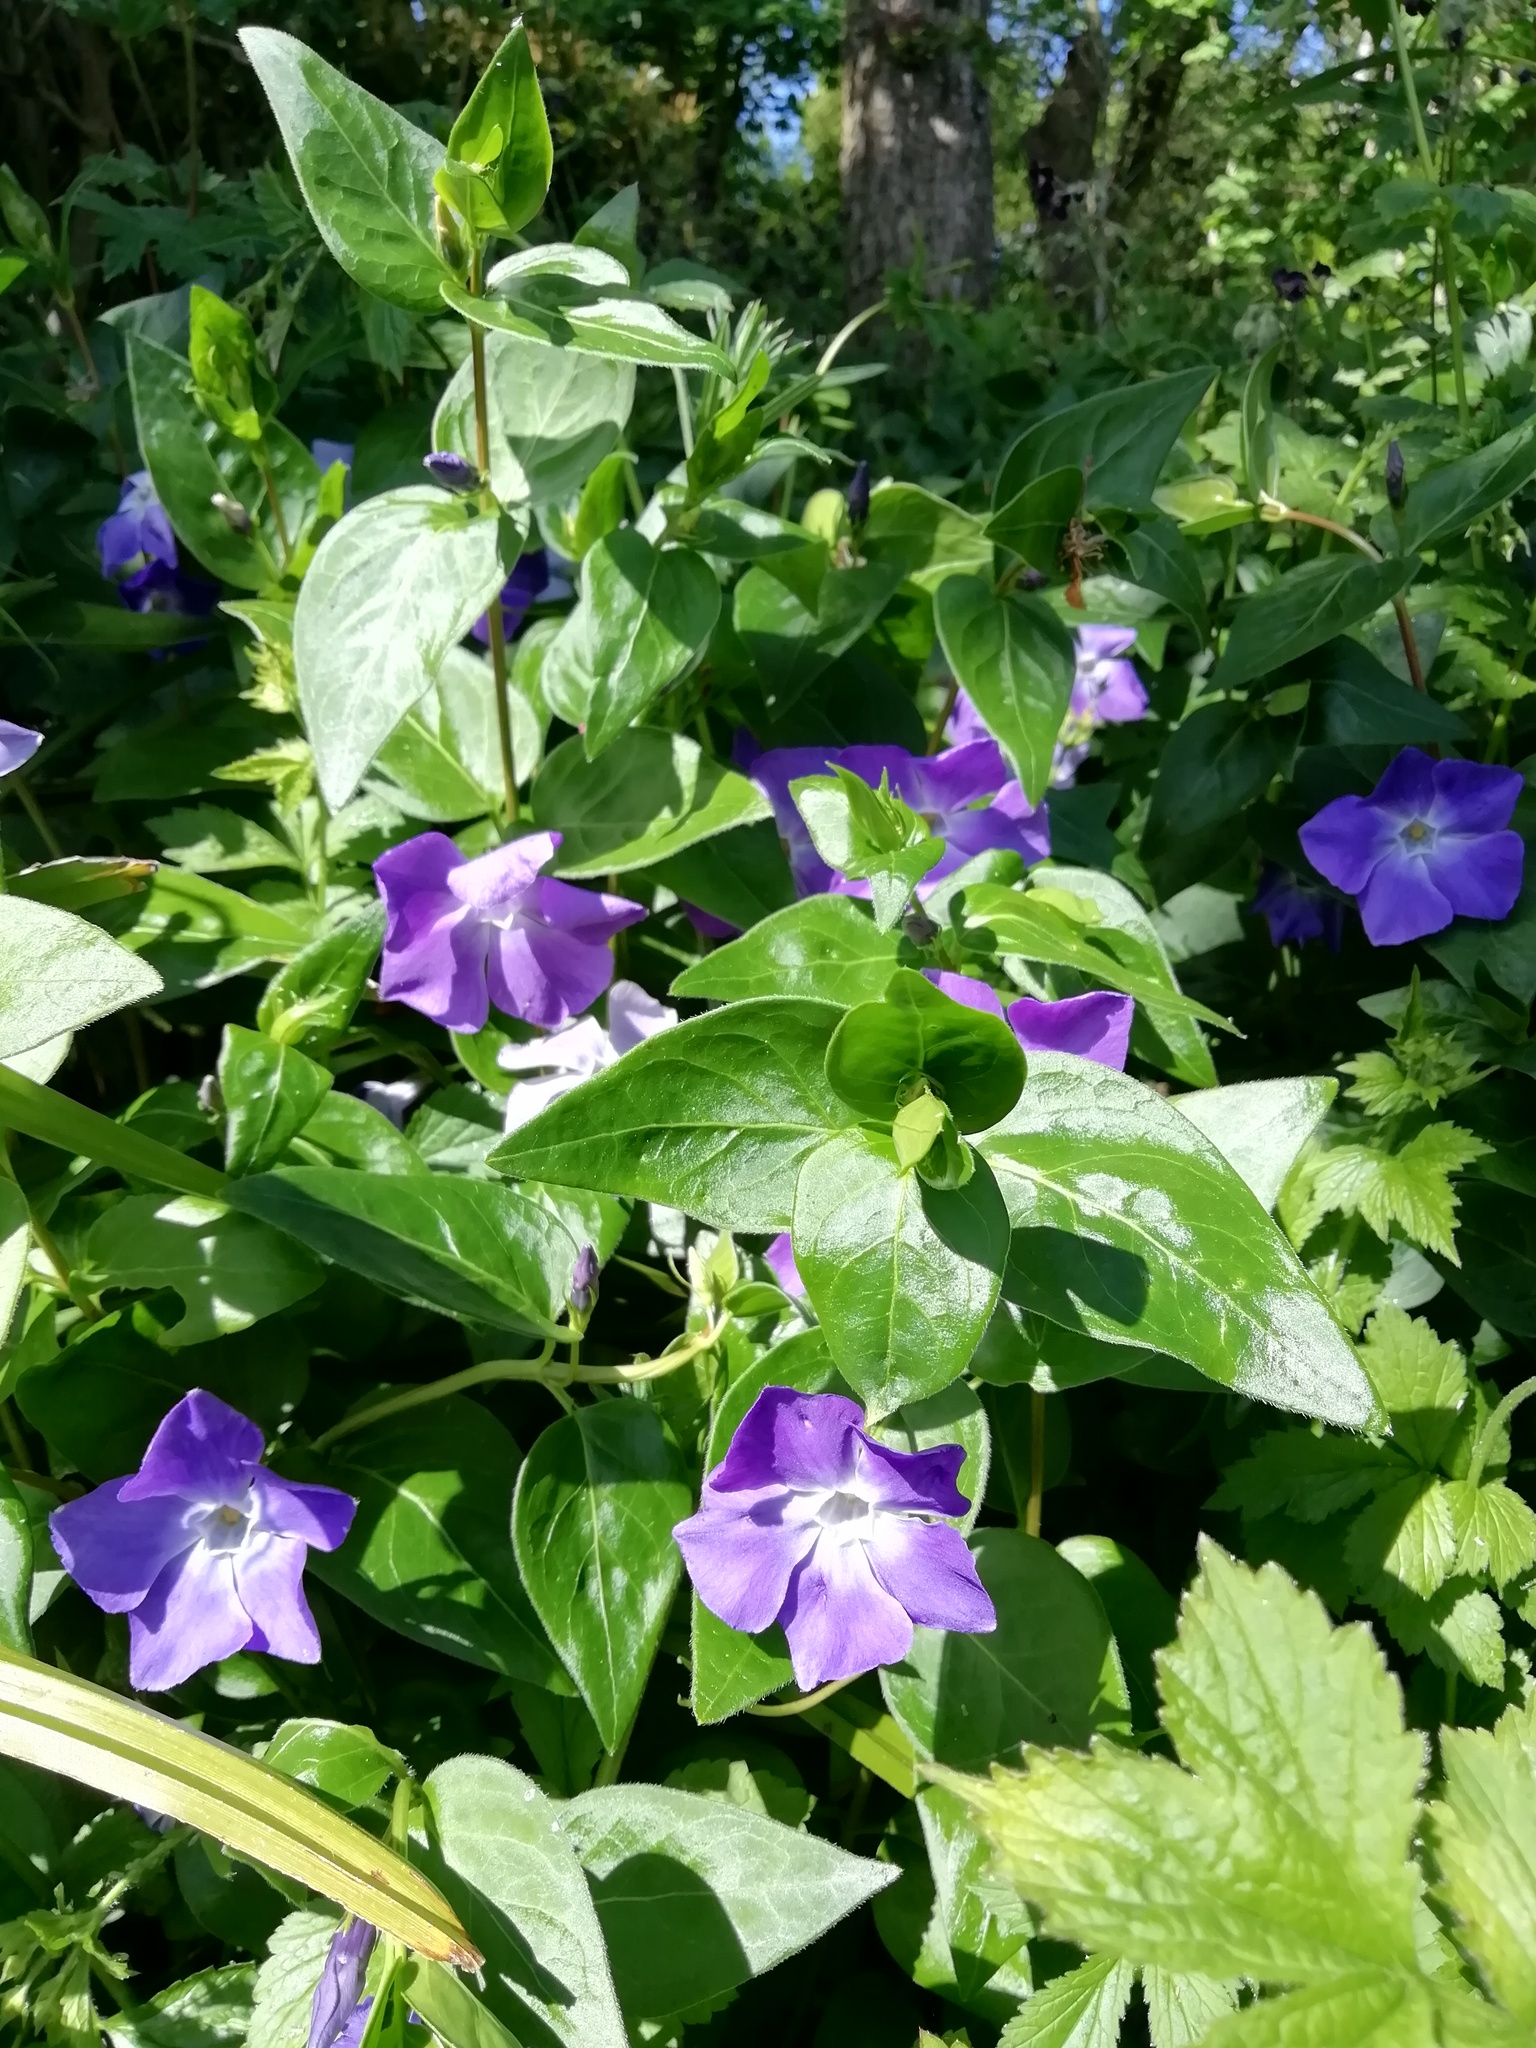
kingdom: Plantae
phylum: Tracheophyta
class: Magnoliopsida
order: Gentianales
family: Apocynaceae
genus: Vinca
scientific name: Vinca major
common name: Greater periwinkle
